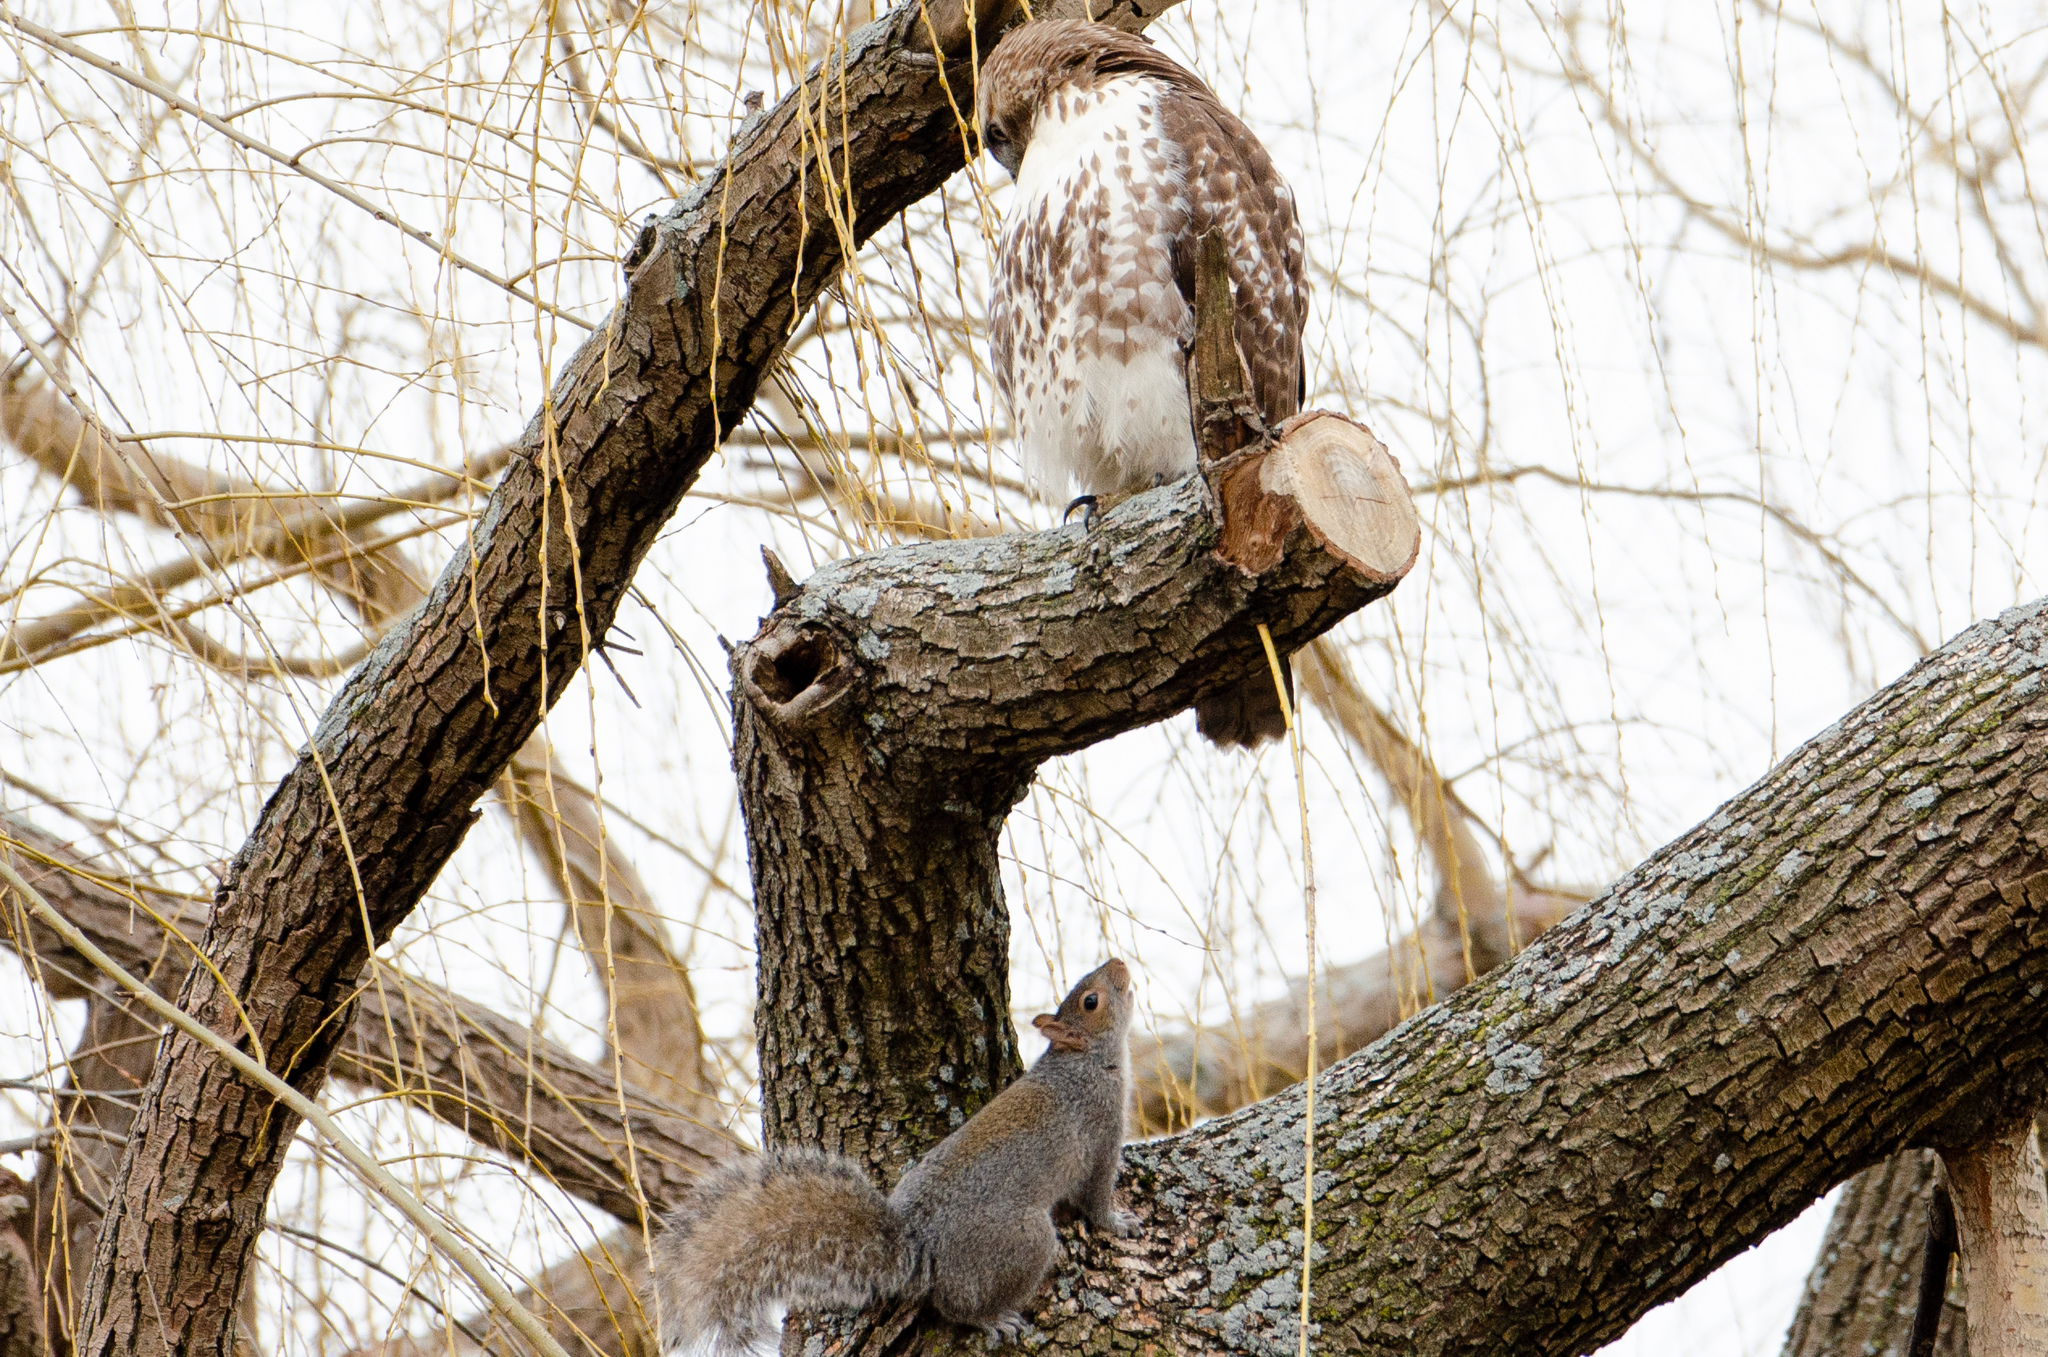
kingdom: Animalia
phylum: Chordata
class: Mammalia
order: Rodentia
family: Sciuridae
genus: Sciurus
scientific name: Sciurus carolinensis
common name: Eastern gray squirrel
